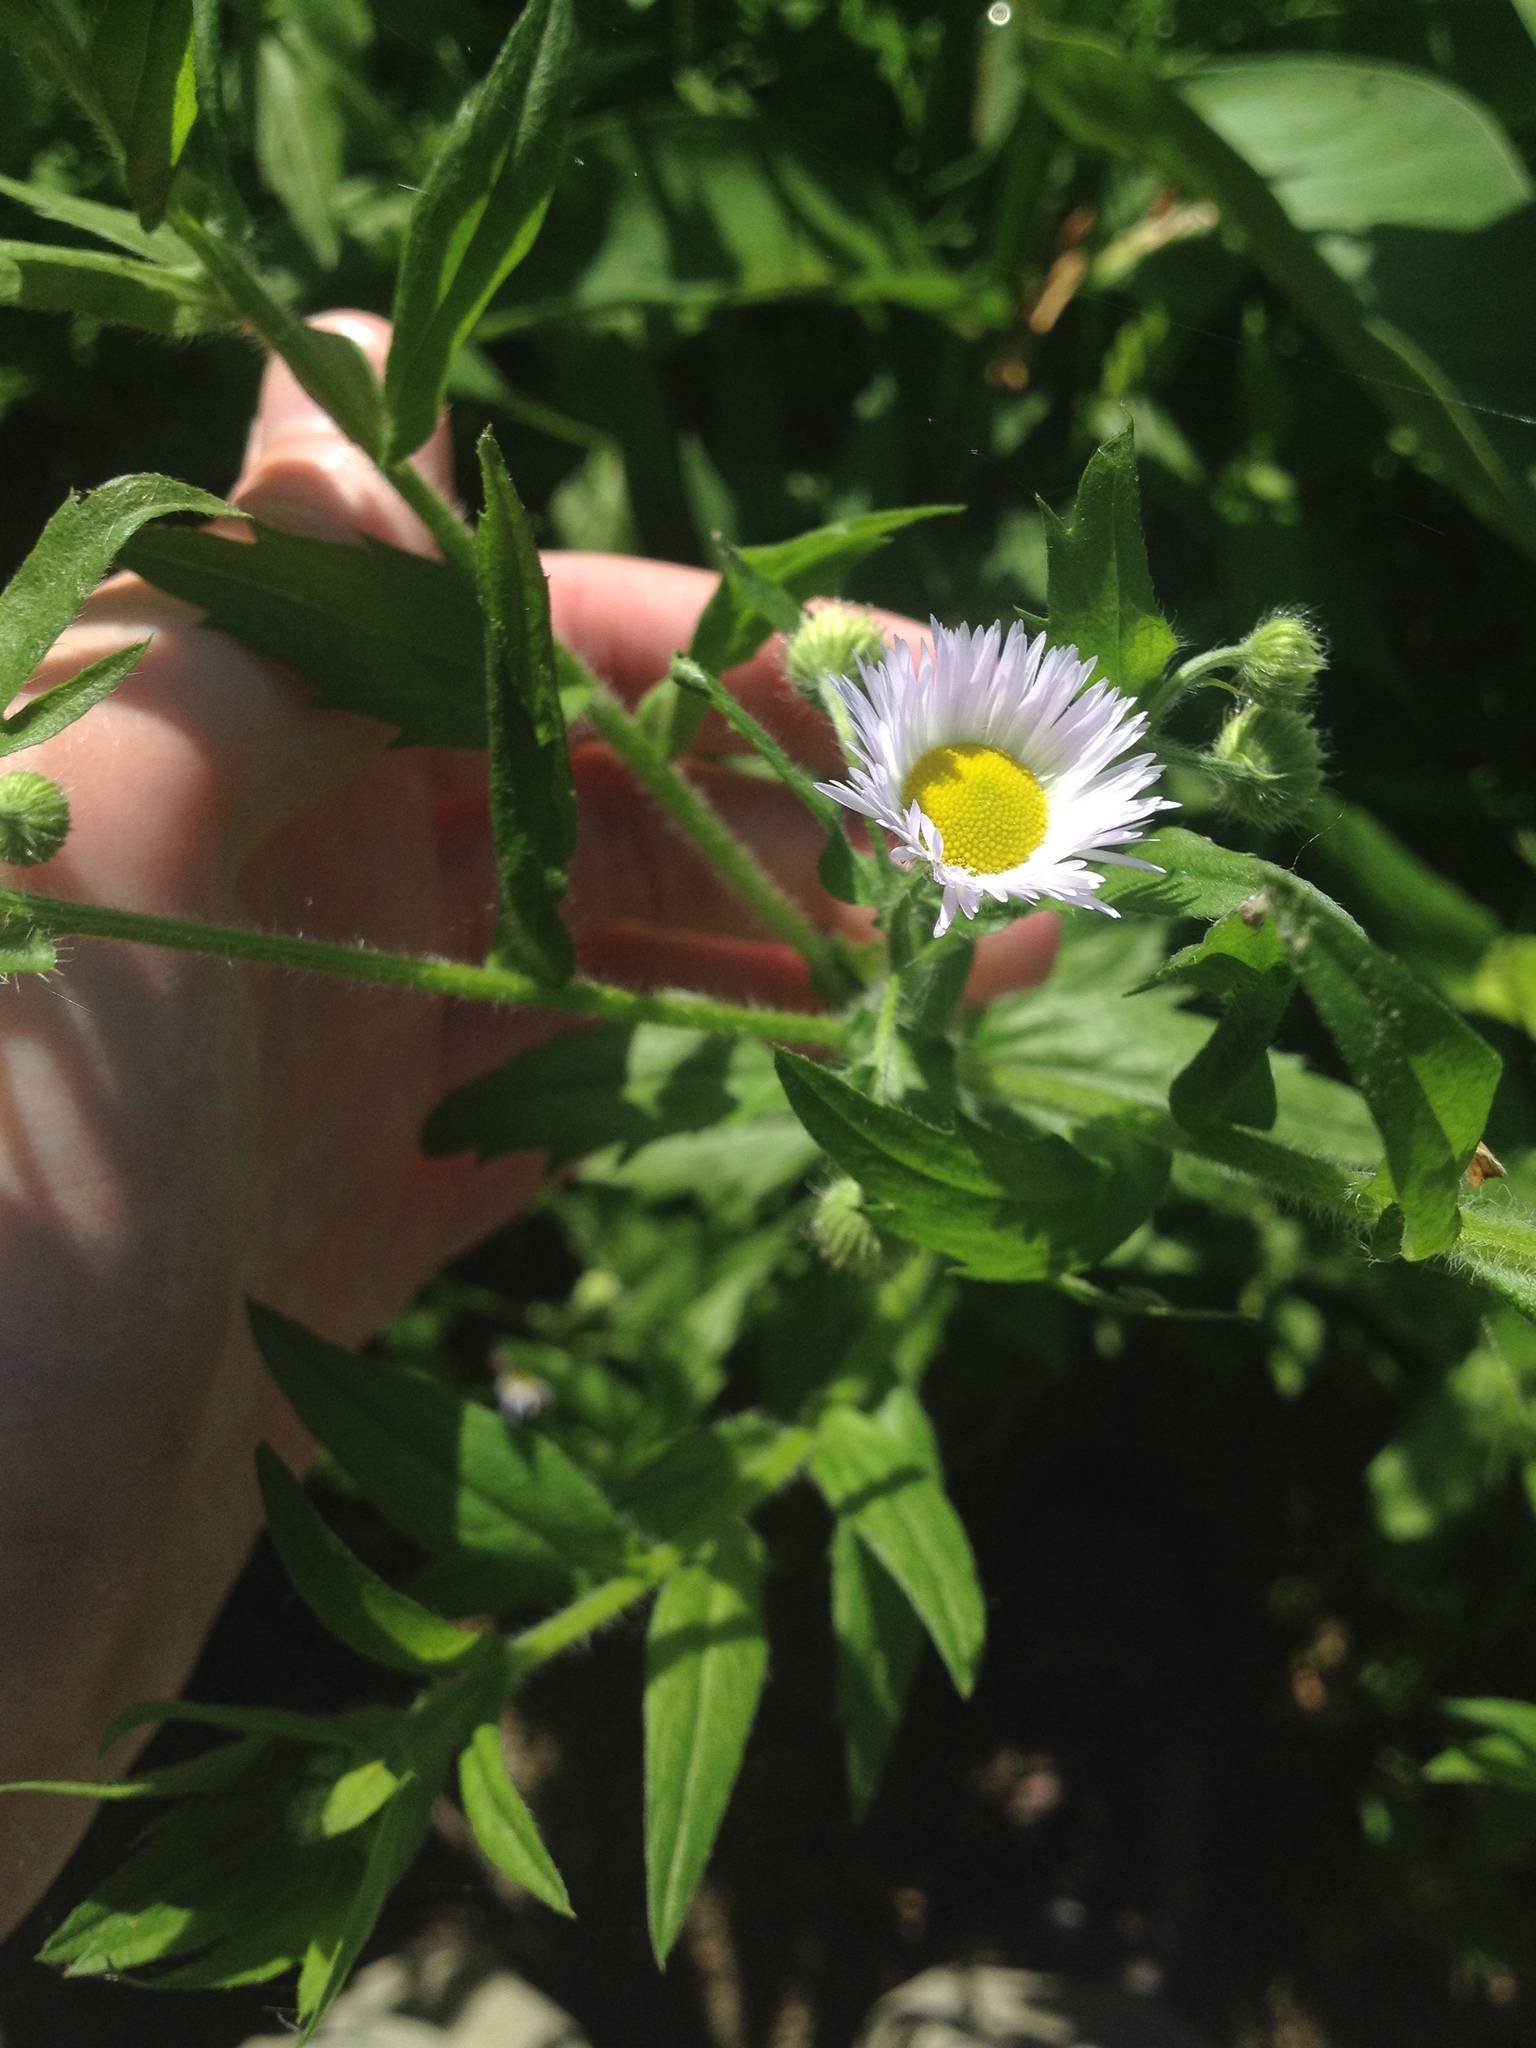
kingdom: Plantae
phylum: Tracheophyta
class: Magnoliopsida
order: Asterales
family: Asteraceae
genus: Erigeron
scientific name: Erigeron strigosus
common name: Common eastern fleabane
